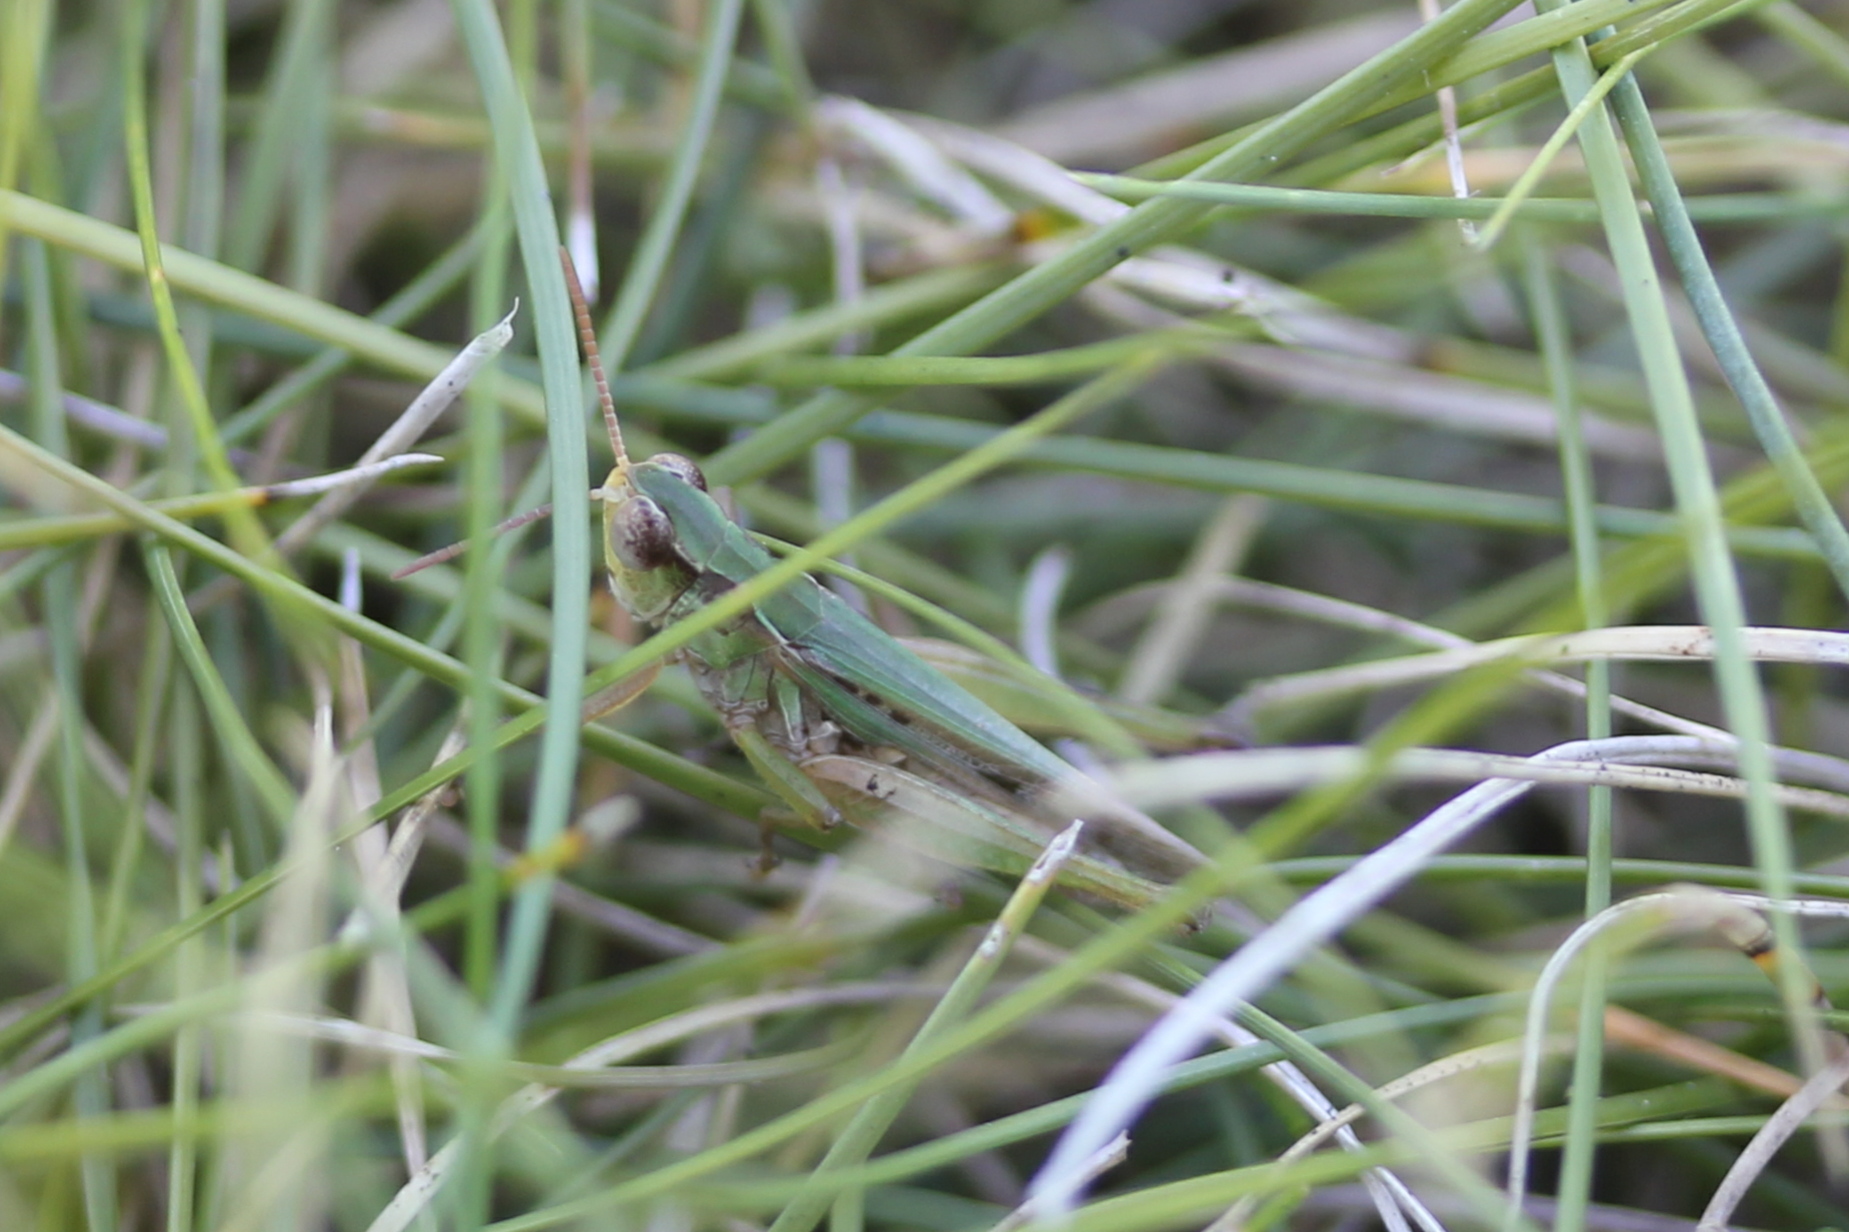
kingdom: Animalia
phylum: Arthropoda
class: Insecta
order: Orthoptera
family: Acrididae
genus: Orphulella
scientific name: Orphulella speciosa
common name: Pasture grasshopper
